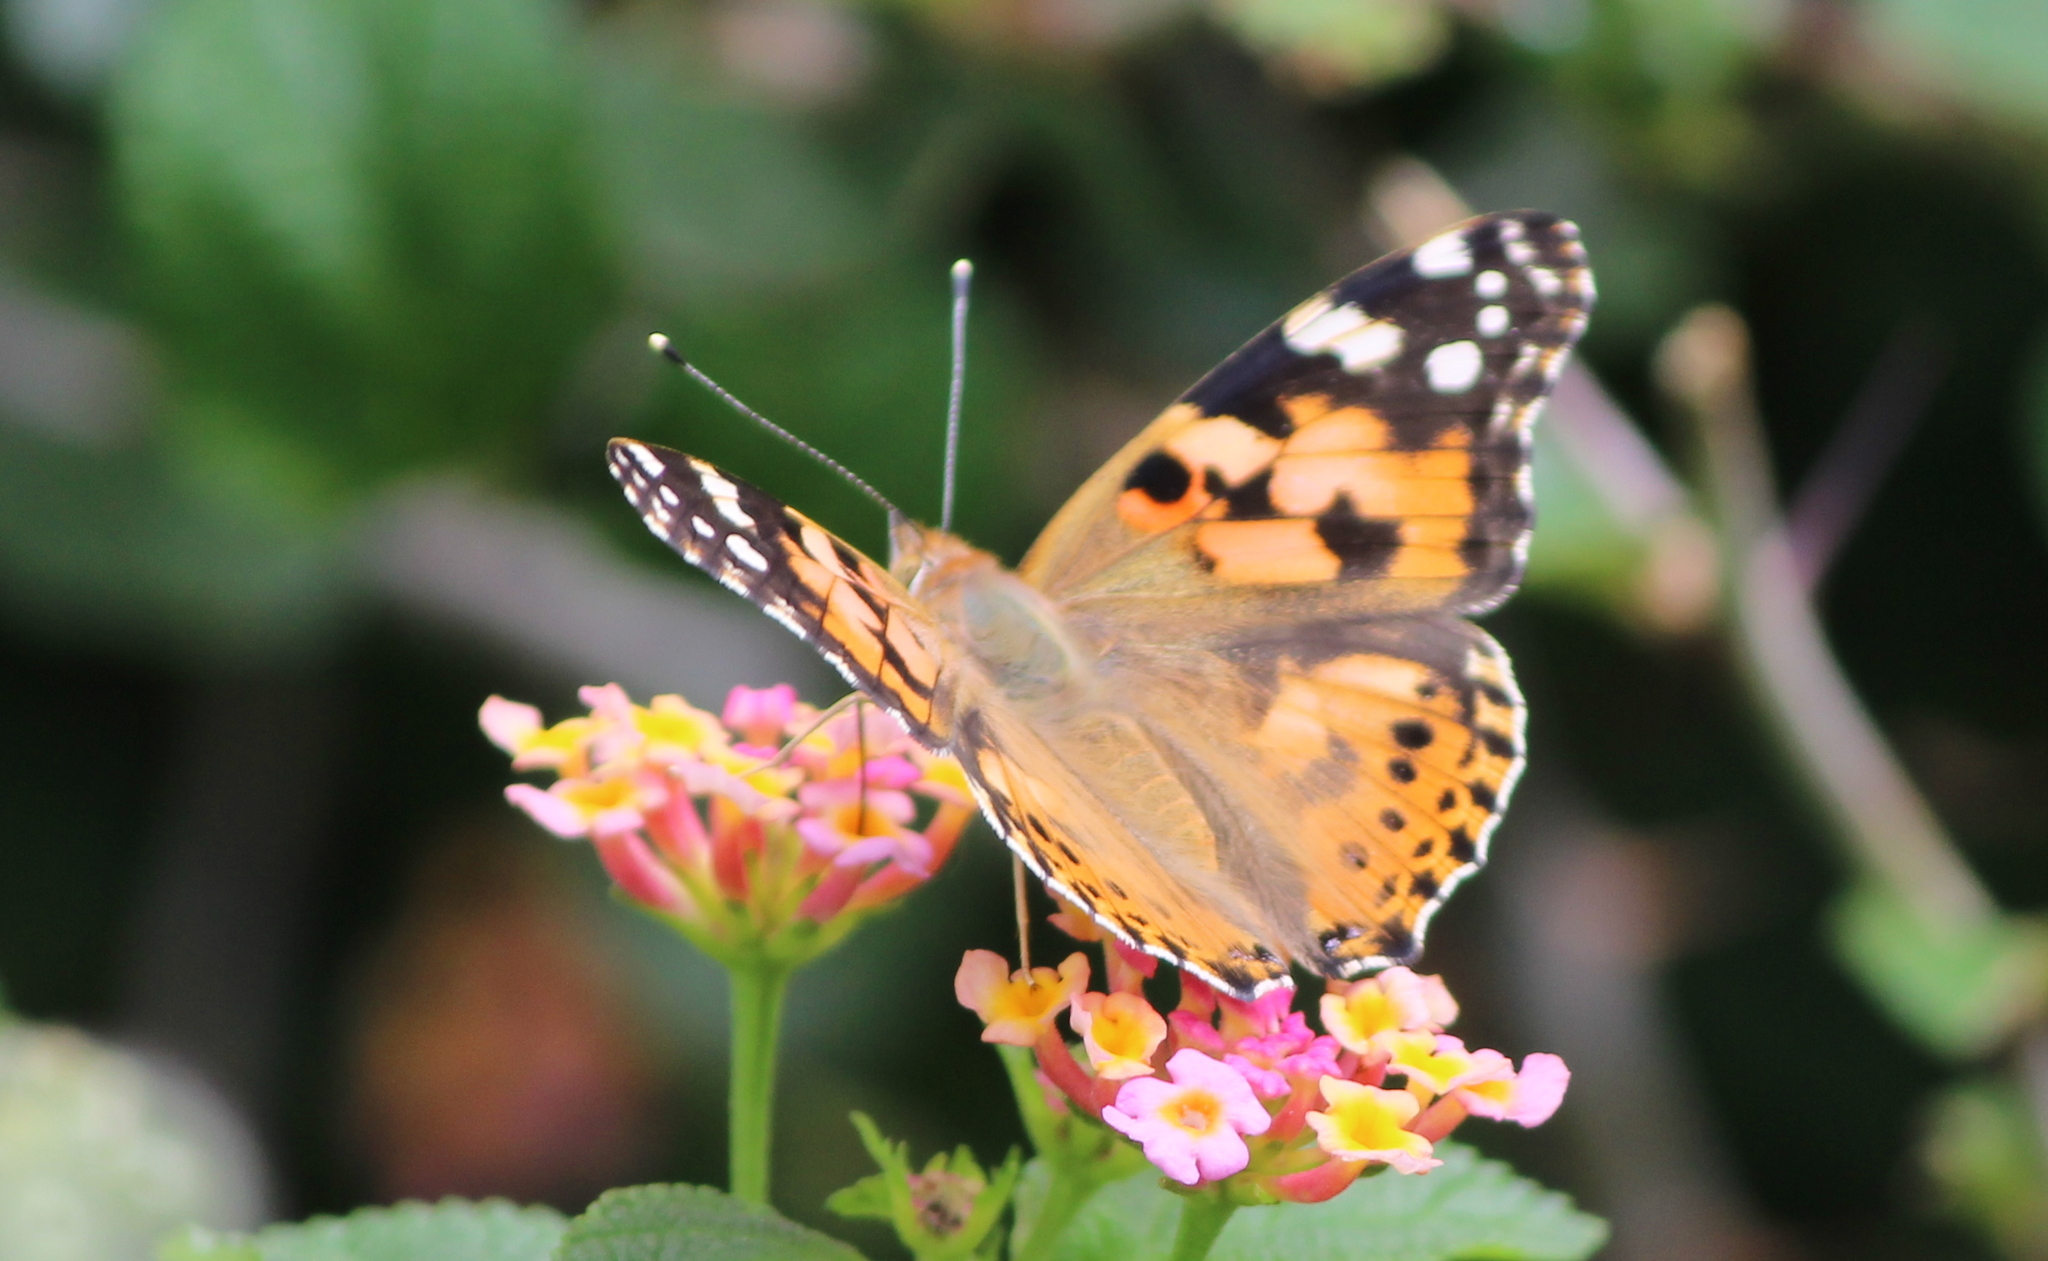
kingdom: Animalia
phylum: Arthropoda
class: Insecta
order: Lepidoptera
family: Nymphalidae
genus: Vanessa
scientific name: Vanessa cardui
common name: Painted lady
